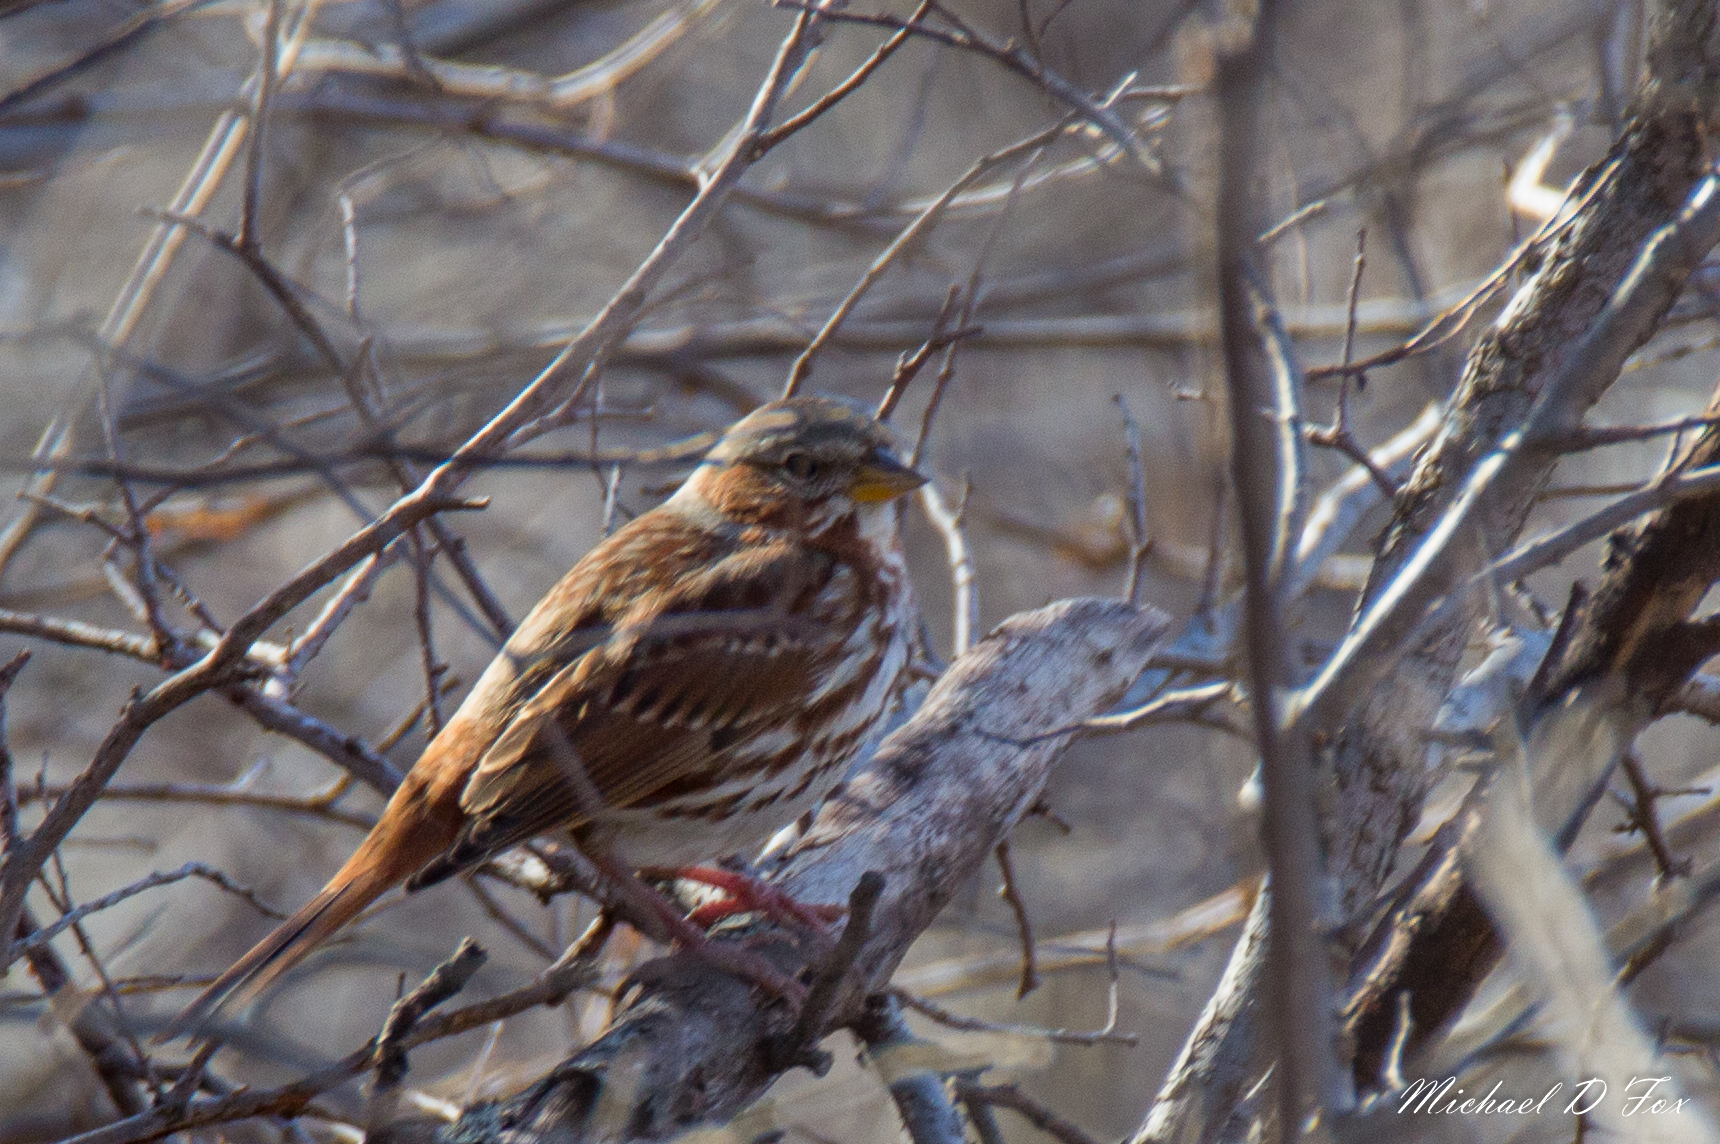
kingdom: Animalia
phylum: Chordata
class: Aves
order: Passeriformes
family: Passerellidae
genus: Passerella
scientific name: Passerella iliaca
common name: Fox sparrow
